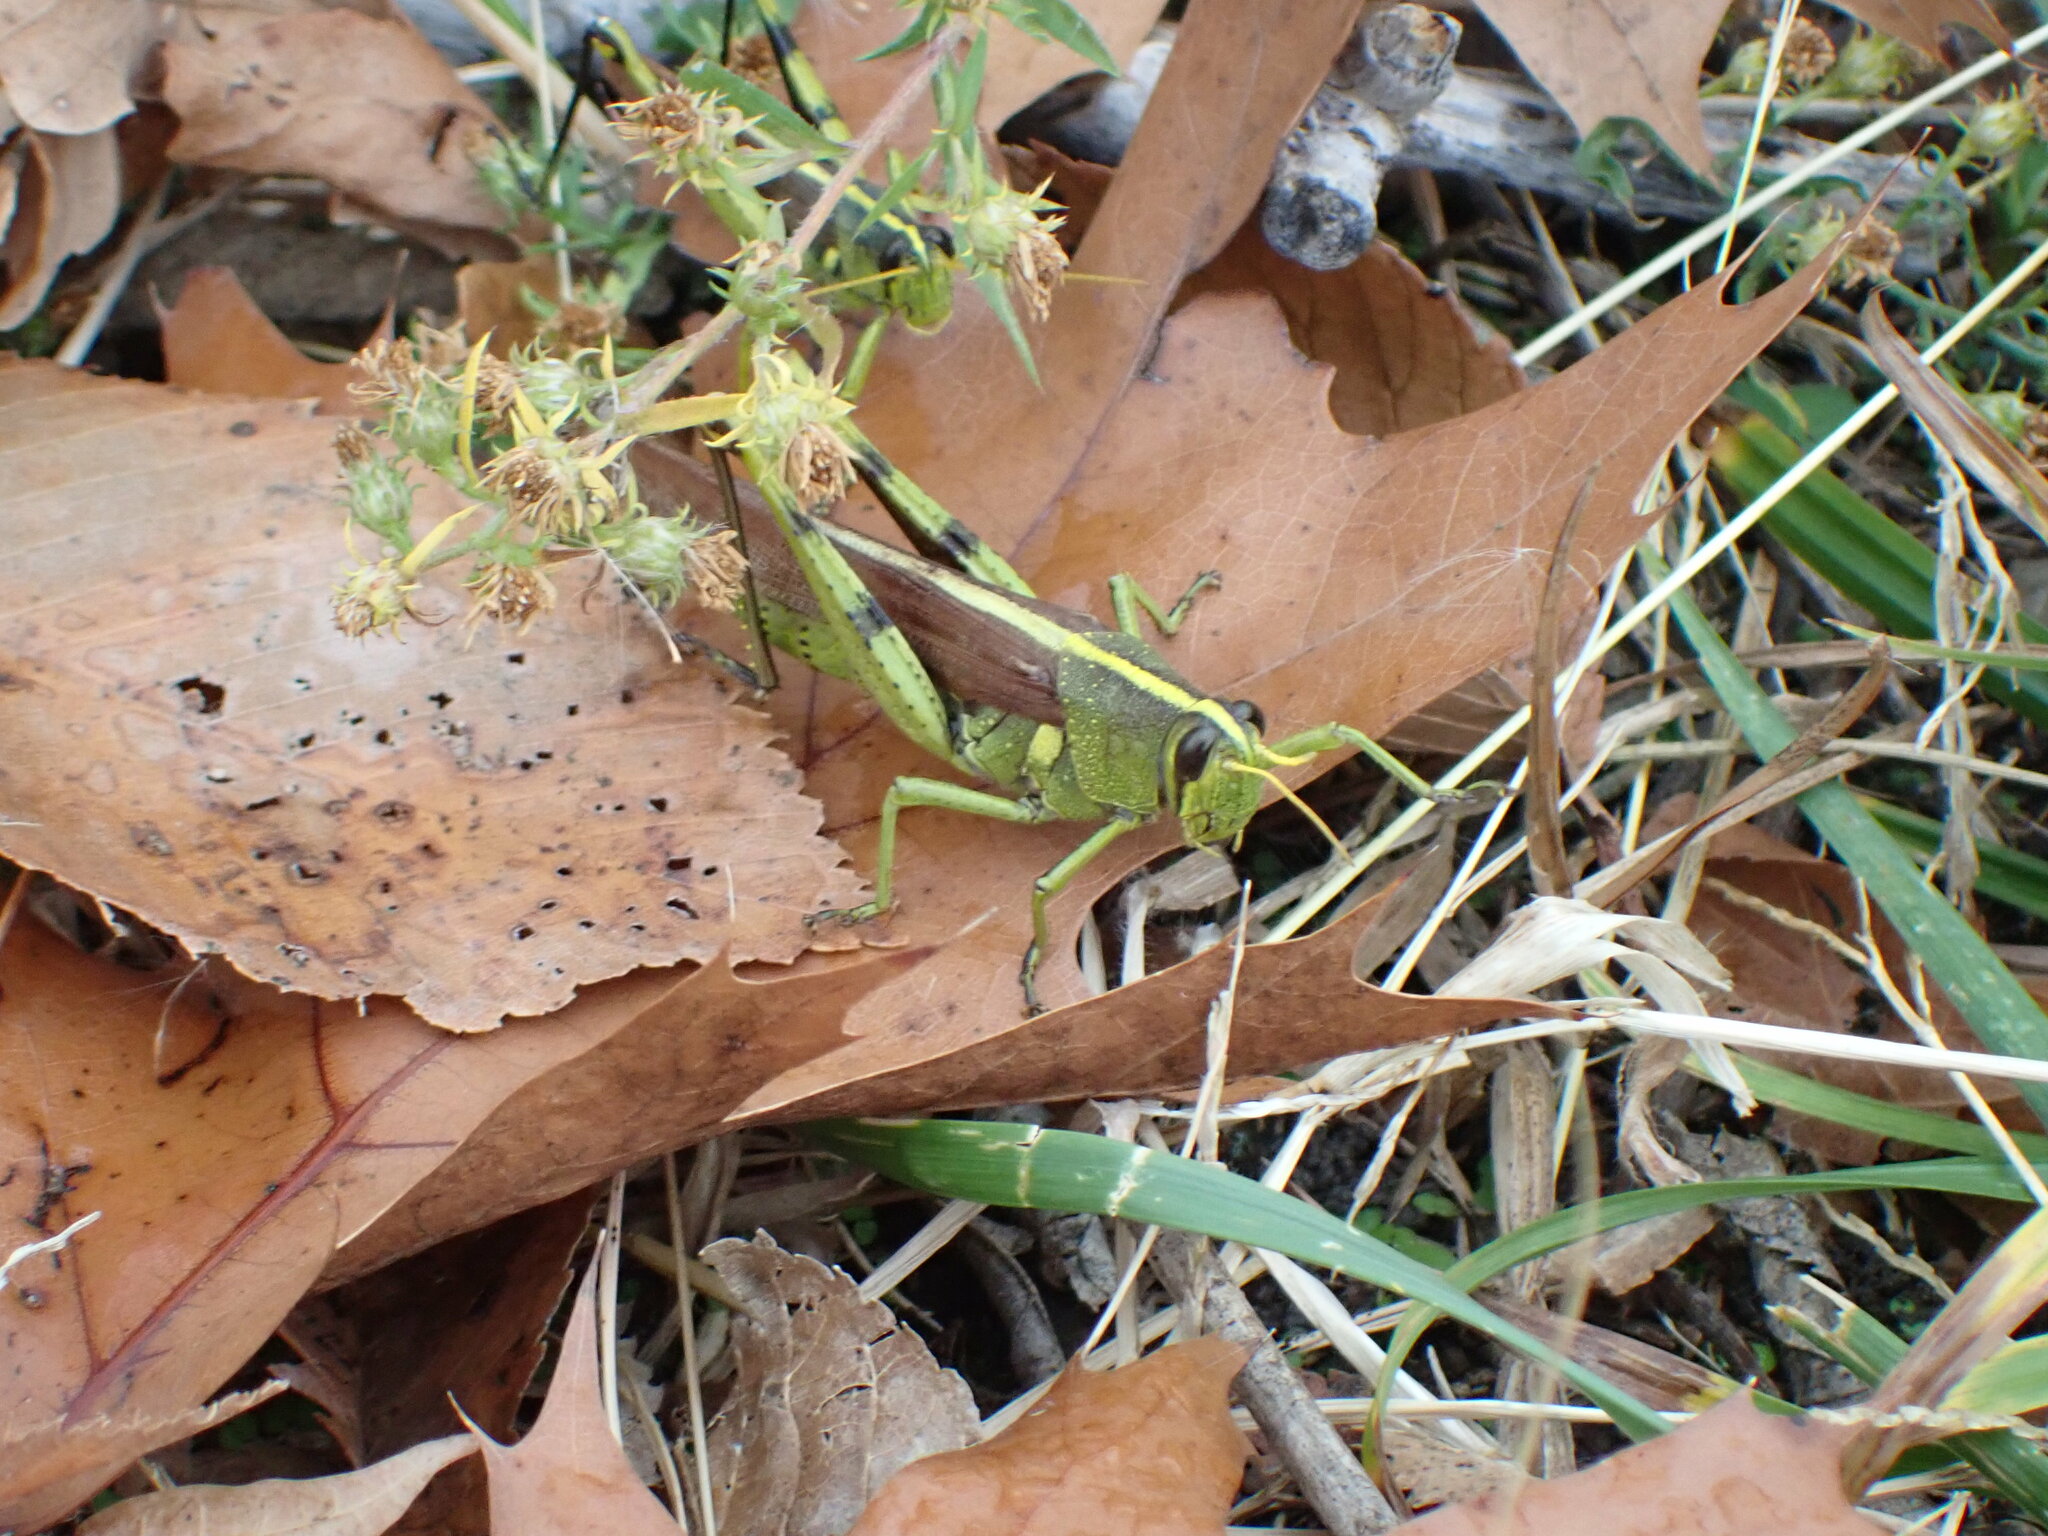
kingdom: Animalia
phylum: Arthropoda
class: Insecta
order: Orthoptera
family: Acrididae
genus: Schistocerca
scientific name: Schistocerca obscura
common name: Obscure bird grasshopper
